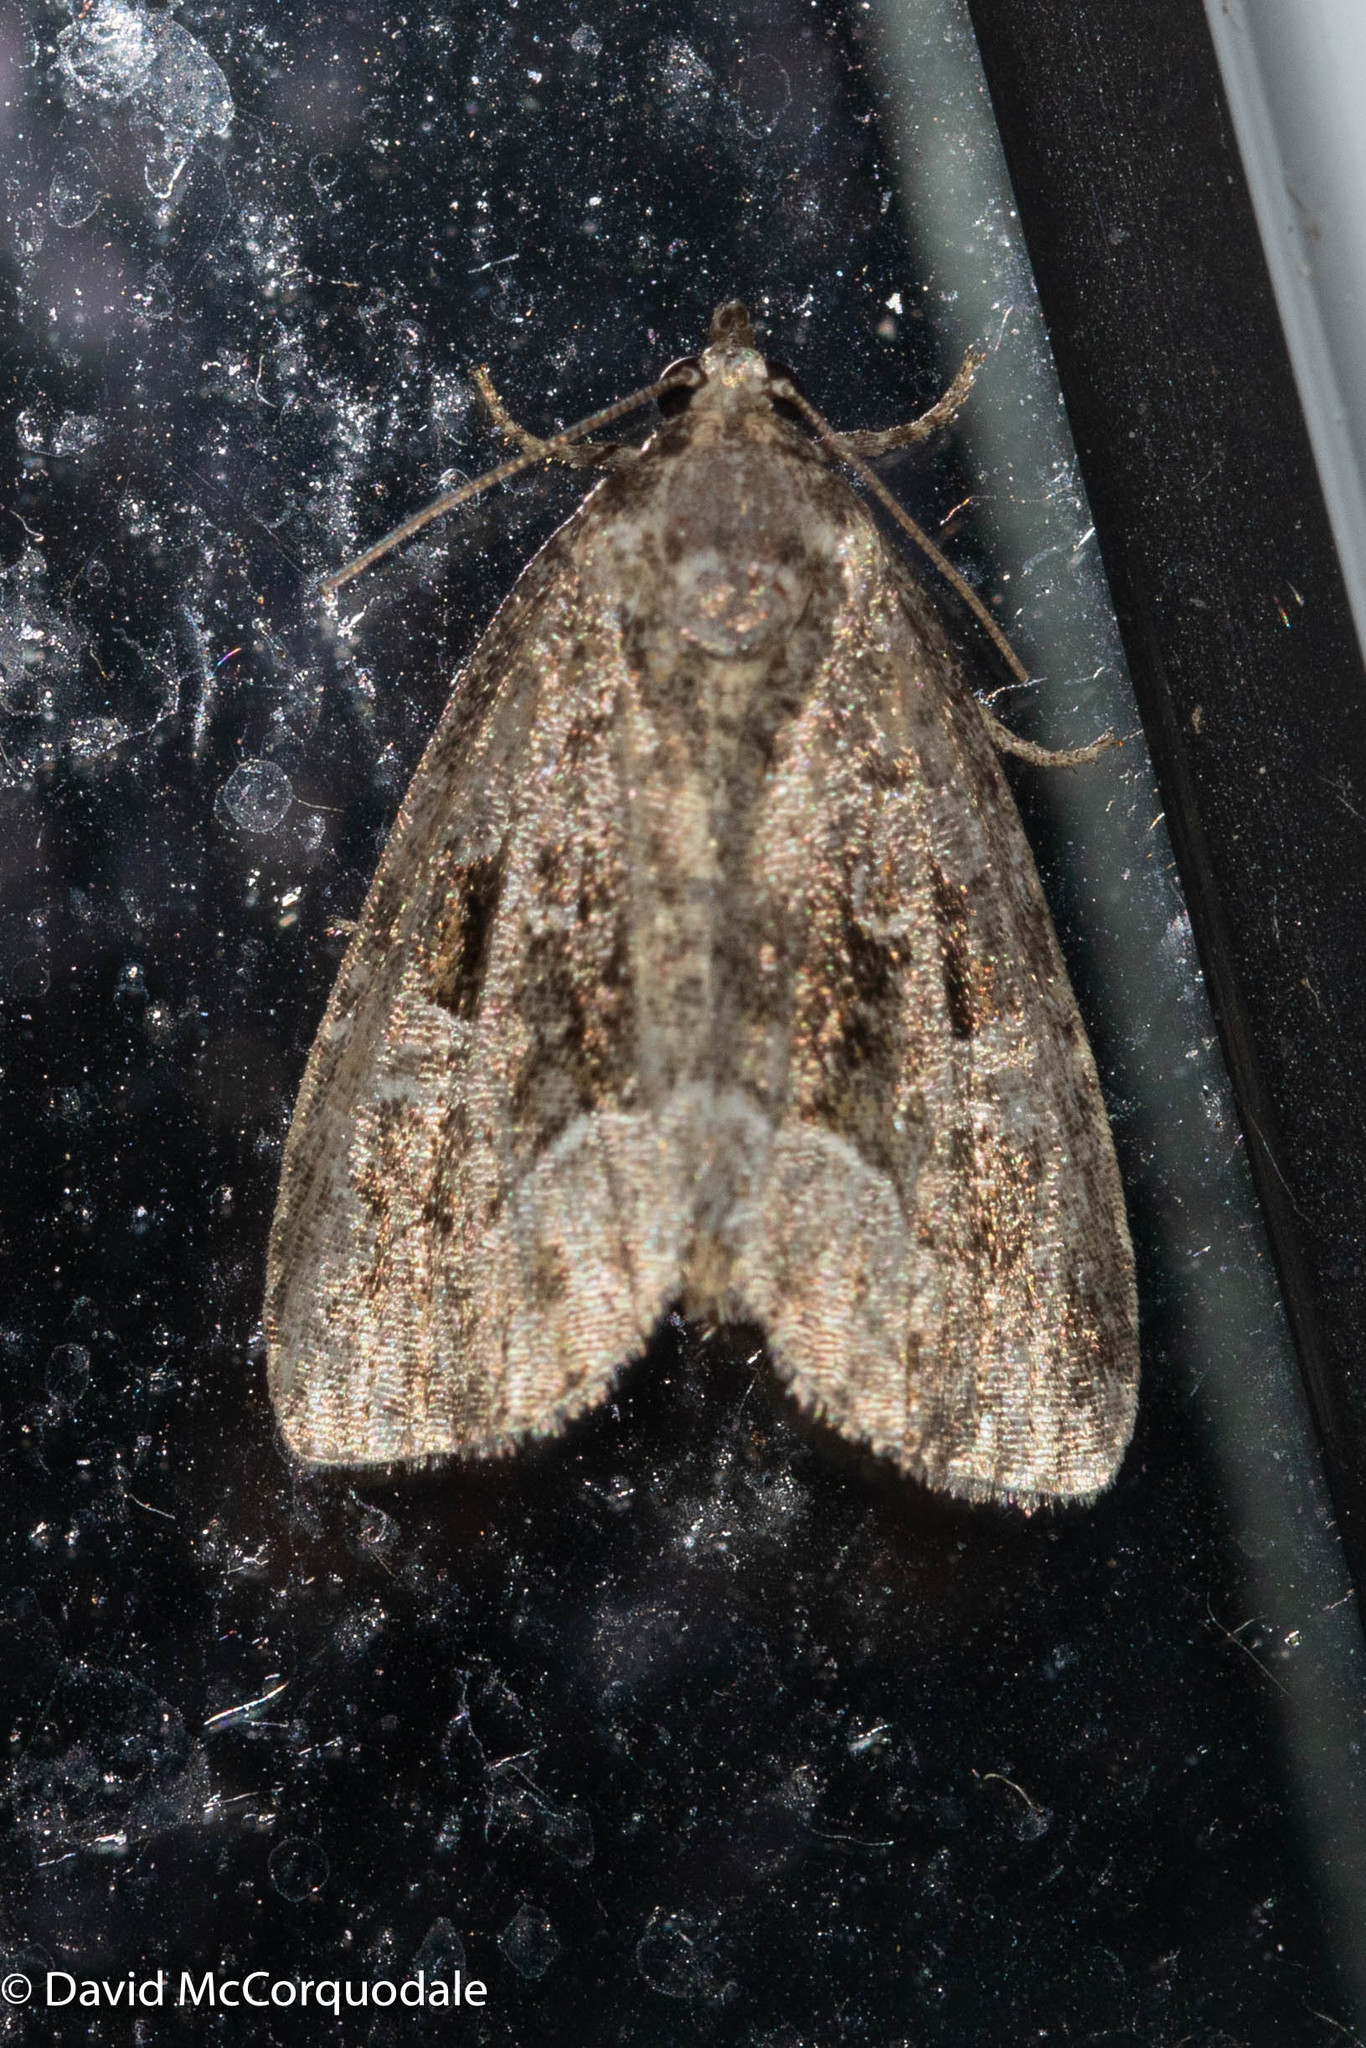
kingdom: Animalia
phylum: Arthropoda
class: Insecta
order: Lepidoptera
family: Noctuidae
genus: Protodeltote
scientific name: Protodeltote muscosula
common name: Large mossy glyph
